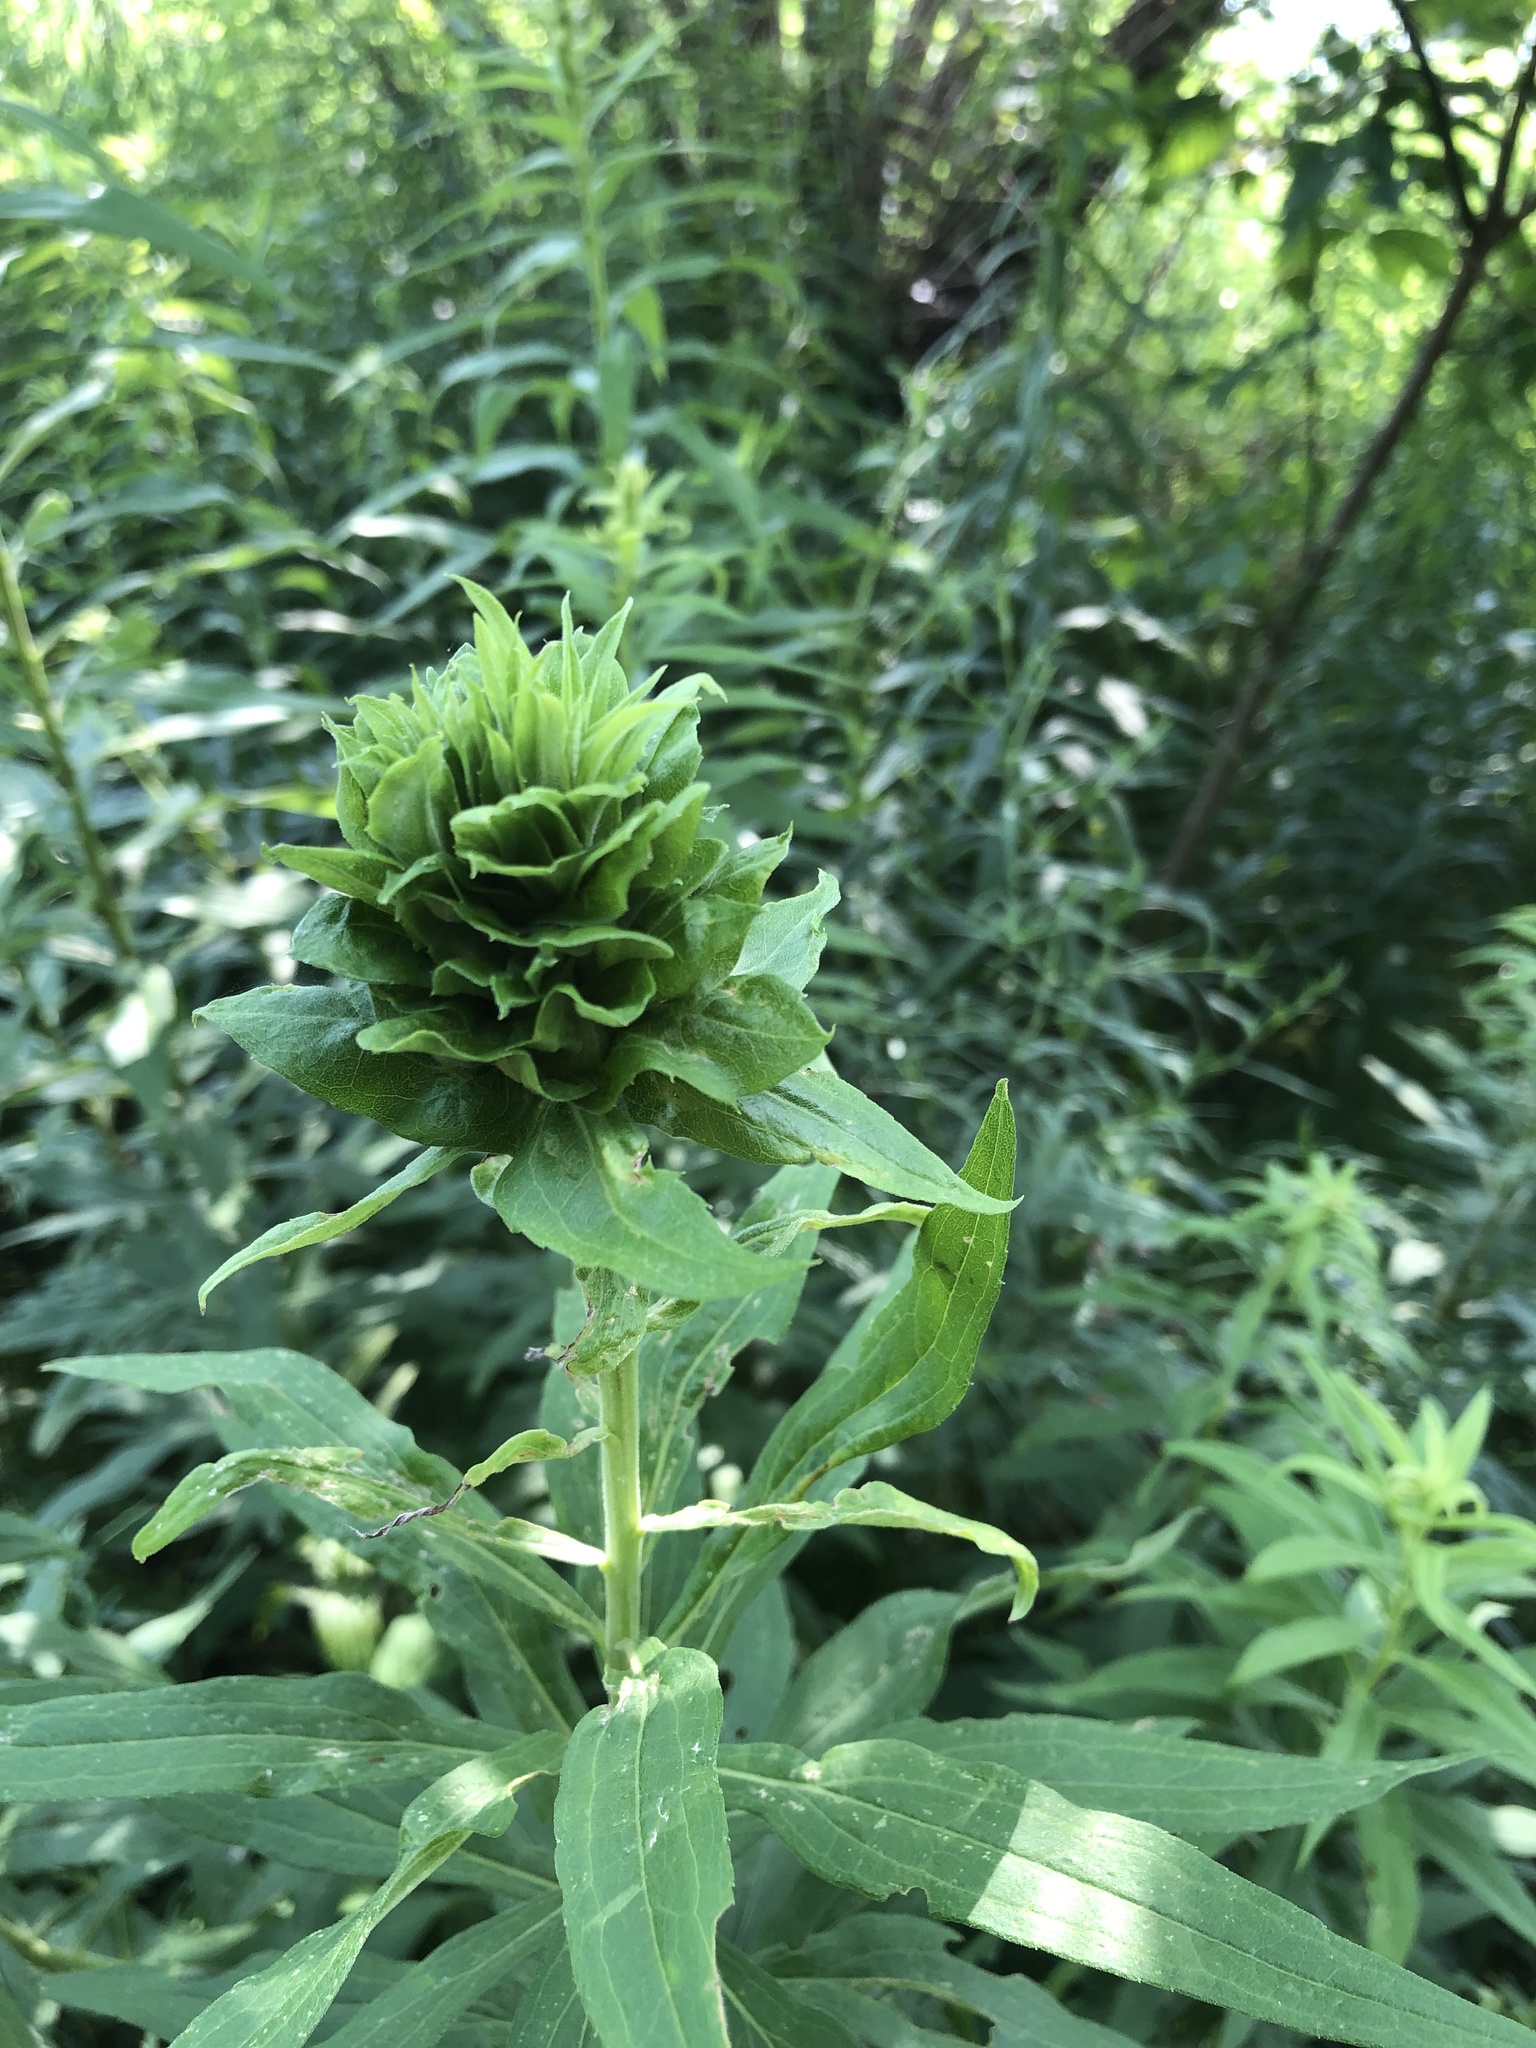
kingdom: Animalia
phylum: Arthropoda
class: Insecta
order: Diptera
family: Cecidomyiidae
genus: Rhopalomyia
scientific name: Rhopalomyia solidaginis
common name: Goldenrod bunch gall midge
